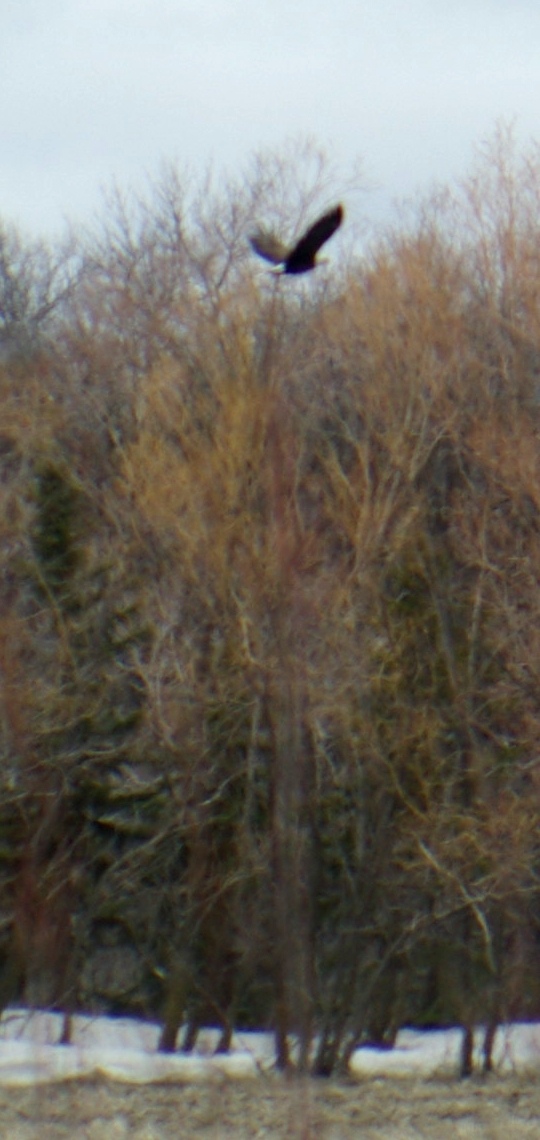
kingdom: Animalia
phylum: Chordata
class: Aves
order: Accipitriformes
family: Accipitridae
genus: Haliaeetus
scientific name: Haliaeetus leucocephalus
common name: Bald eagle
